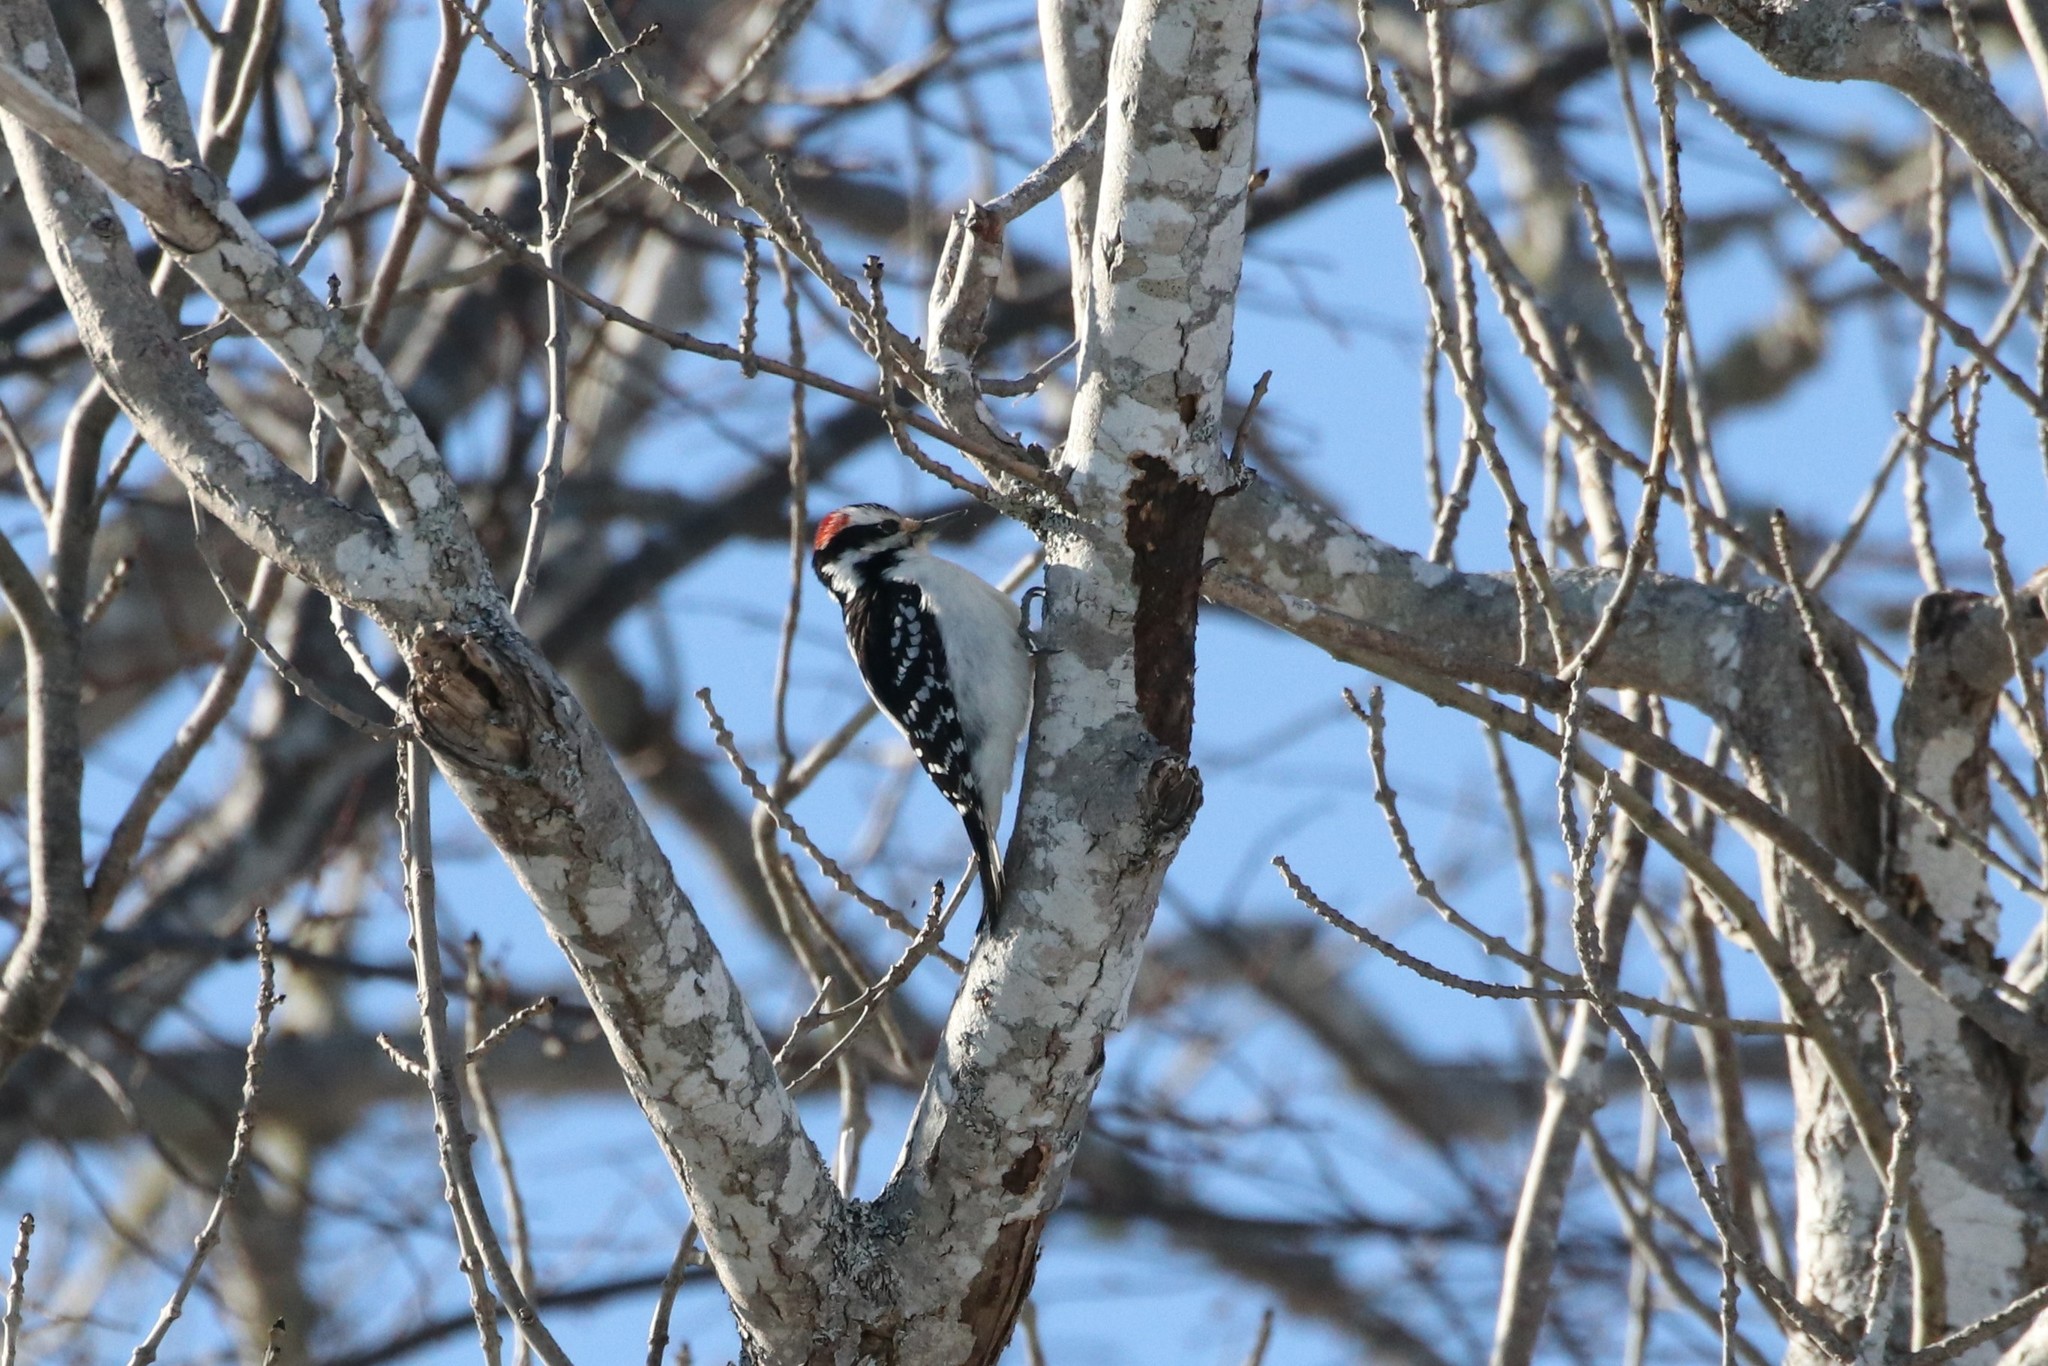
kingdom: Animalia
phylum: Chordata
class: Aves
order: Piciformes
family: Picidae
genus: Leuconotopicus
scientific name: Leuconotopicus villosus
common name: Hairy woodpecker
